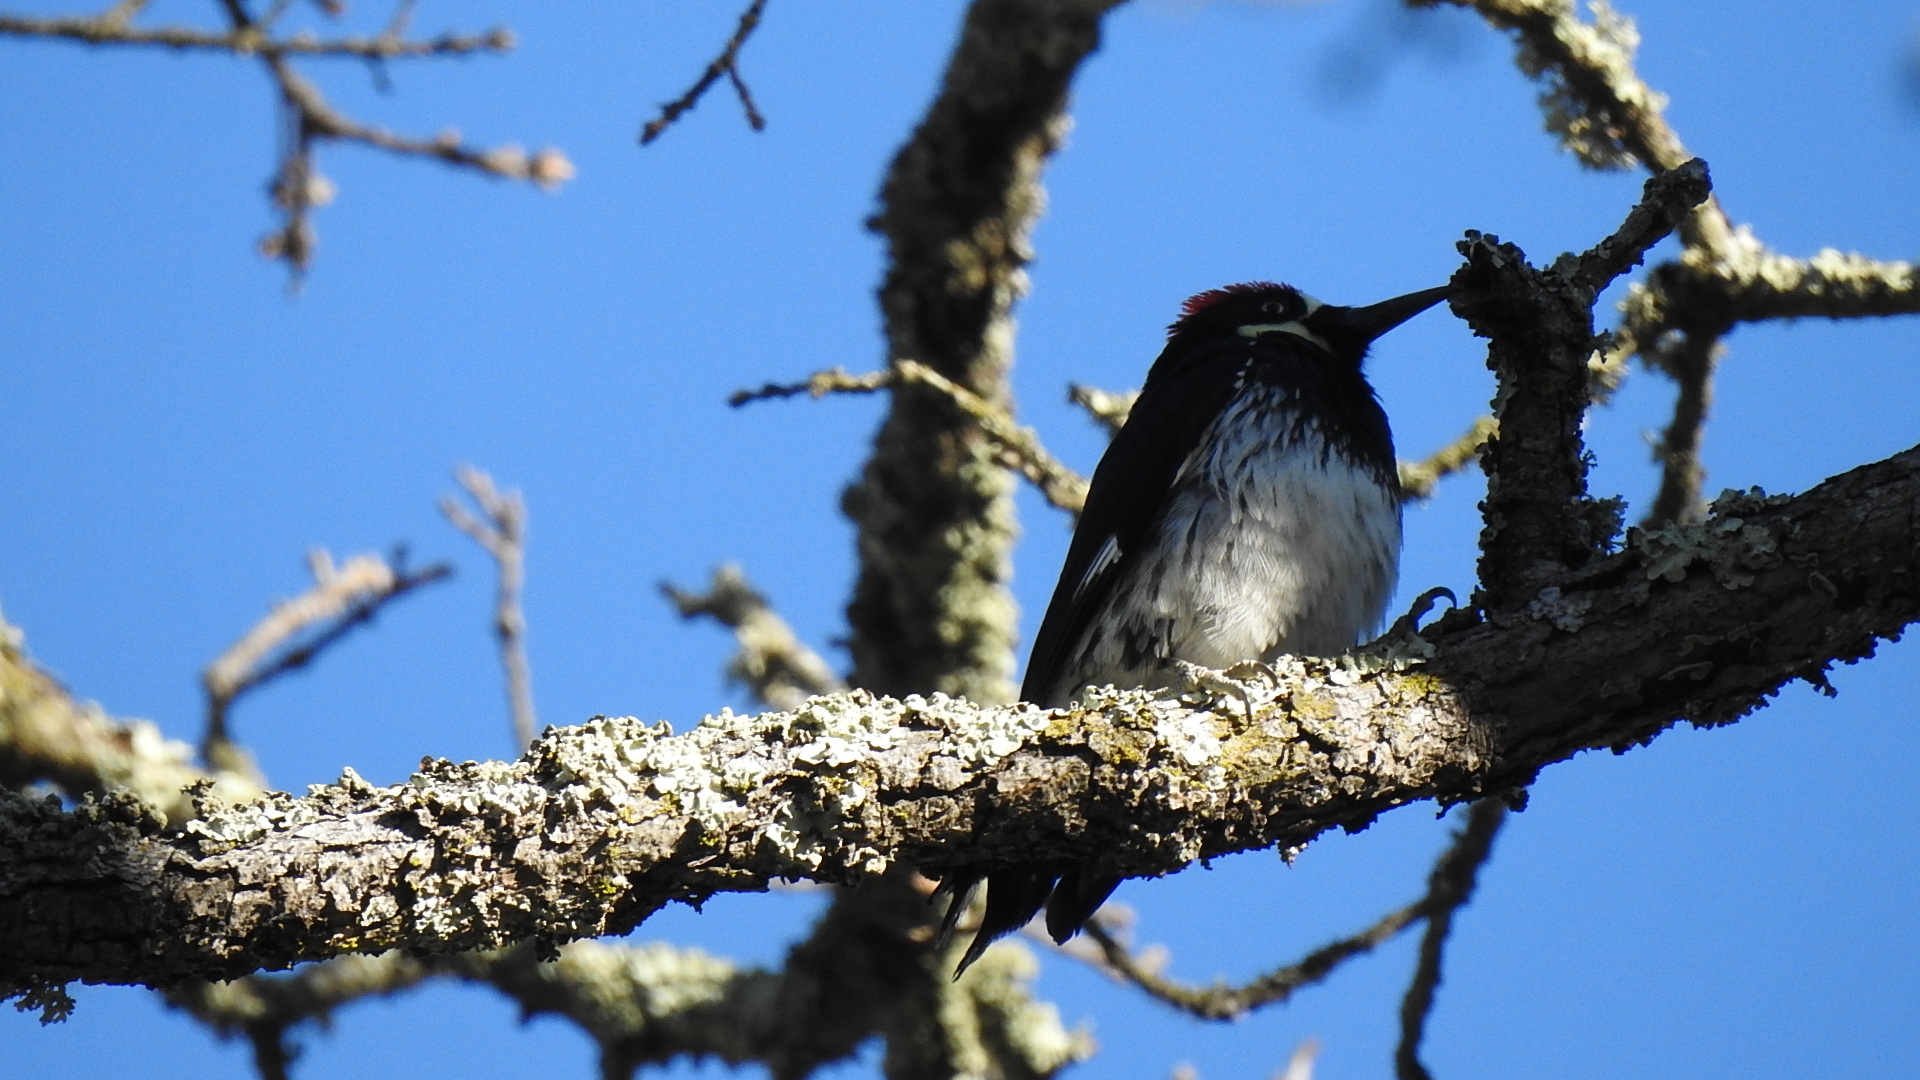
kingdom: Animalia
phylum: Chordata
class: Aves
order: Piciformes
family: Picidae
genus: Melanerpes
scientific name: Melanerpes formicivorus
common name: Acorn woodpecker
